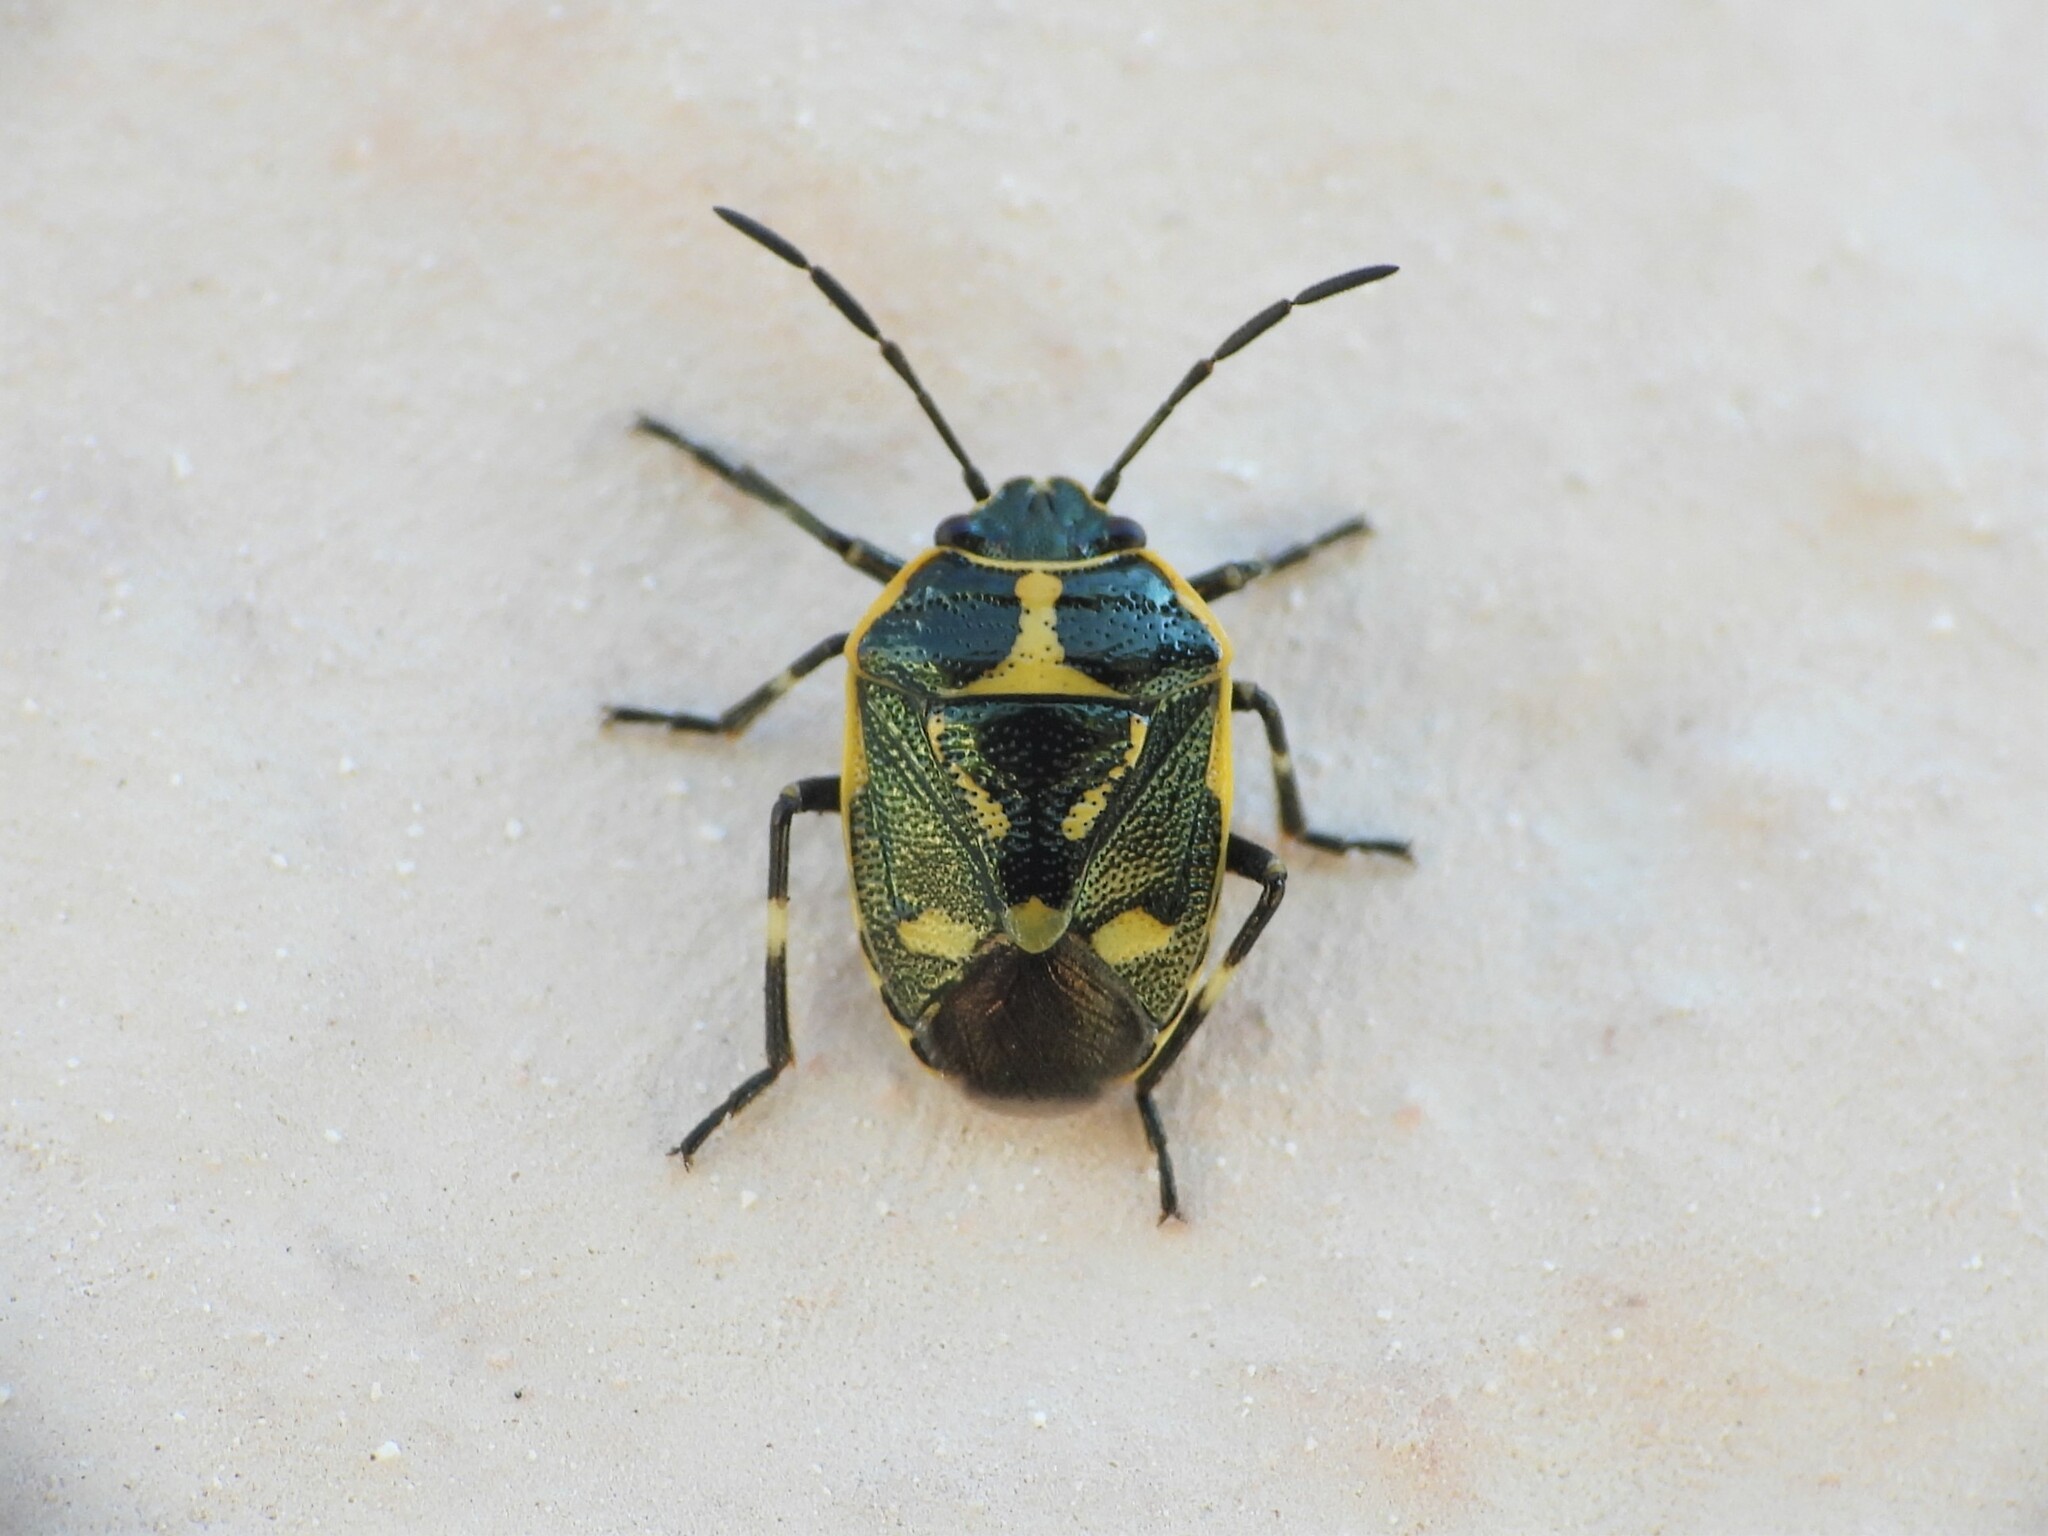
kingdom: Animalia
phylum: Arthropoda
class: Insecta
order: Hemiptera
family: Pentatomidae
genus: Eurydema
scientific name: Eurydema oleracea
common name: Cabbage bug
